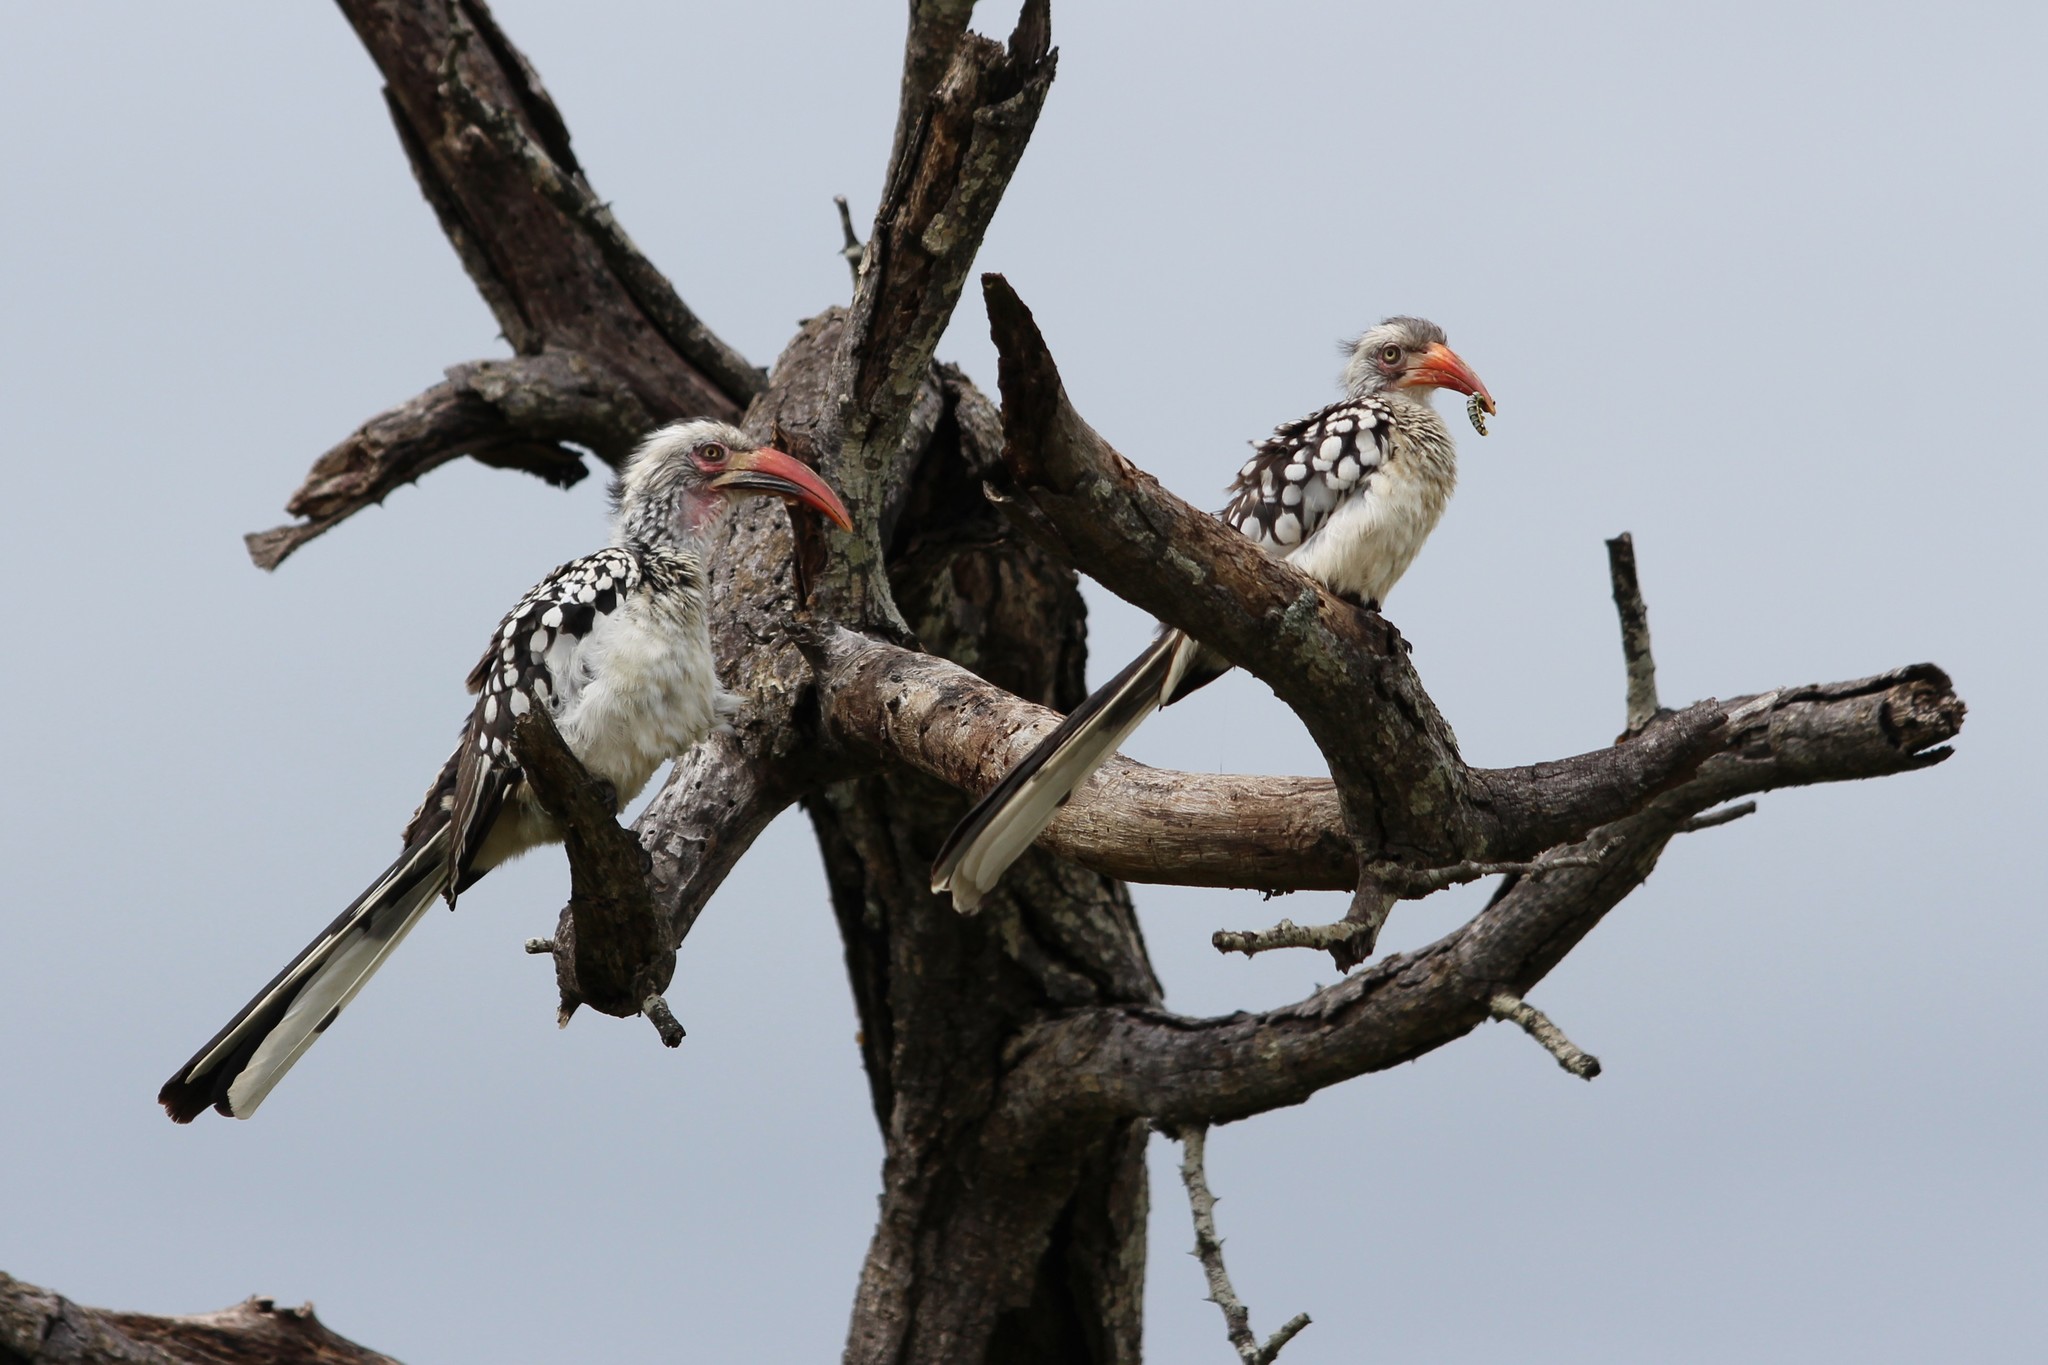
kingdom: Animalia
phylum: Chordata
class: Aves
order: Bucerotiformes
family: Bucerotidae
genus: Tockus
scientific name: Tockus rufirostris
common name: Southern red-billed hornbill
